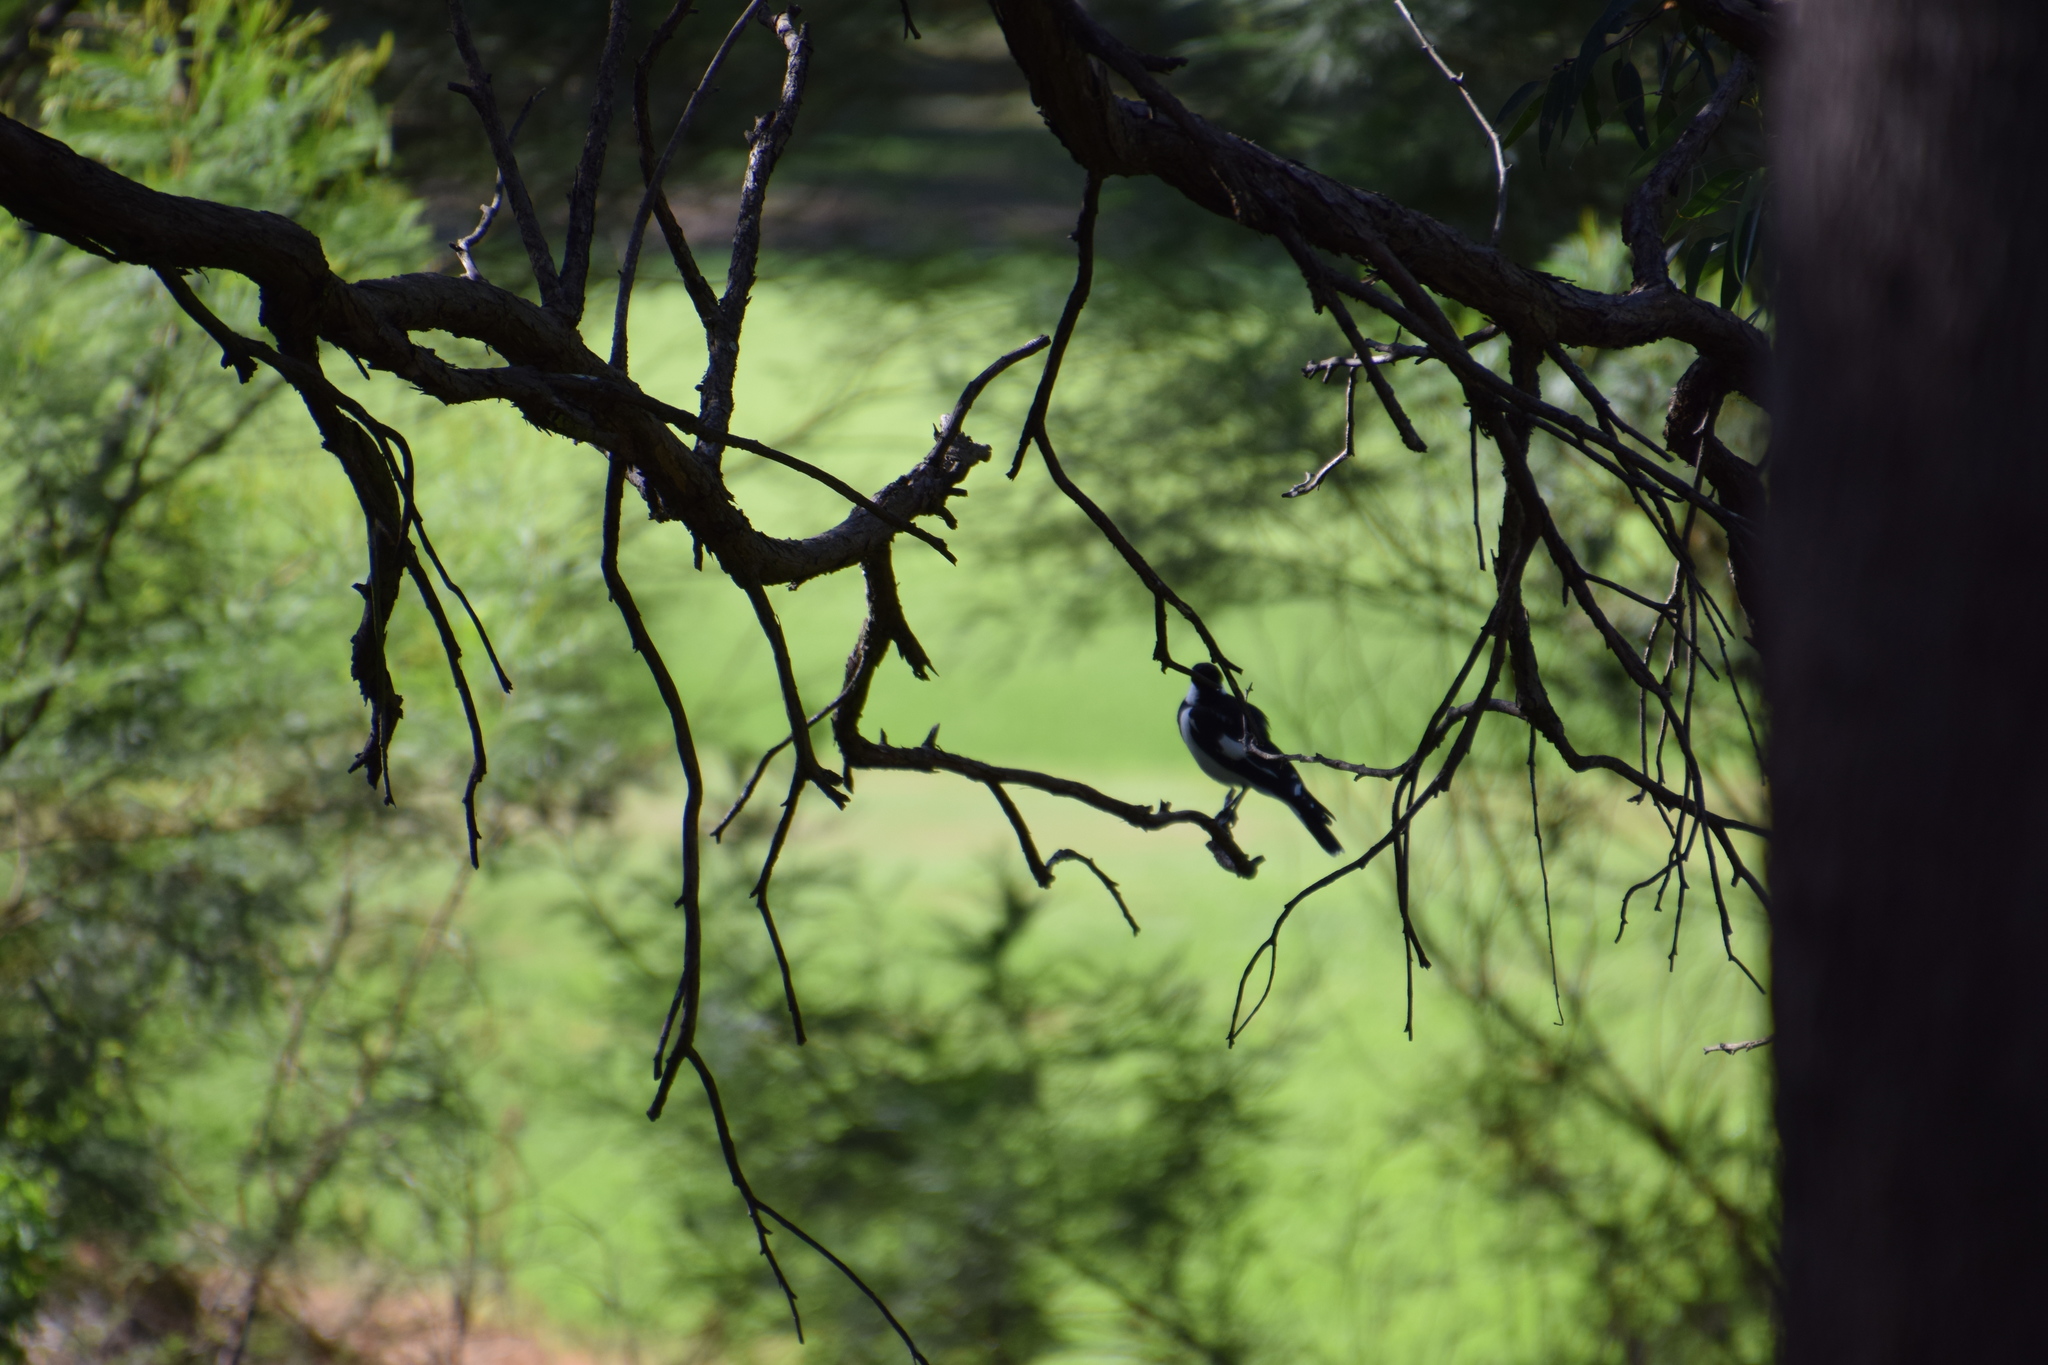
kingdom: Animalia
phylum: Chordata
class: Aves
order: Passeriformes
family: Monarchidae
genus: Grallina
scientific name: Grallina cyanoleuca
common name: Magpie-lark
